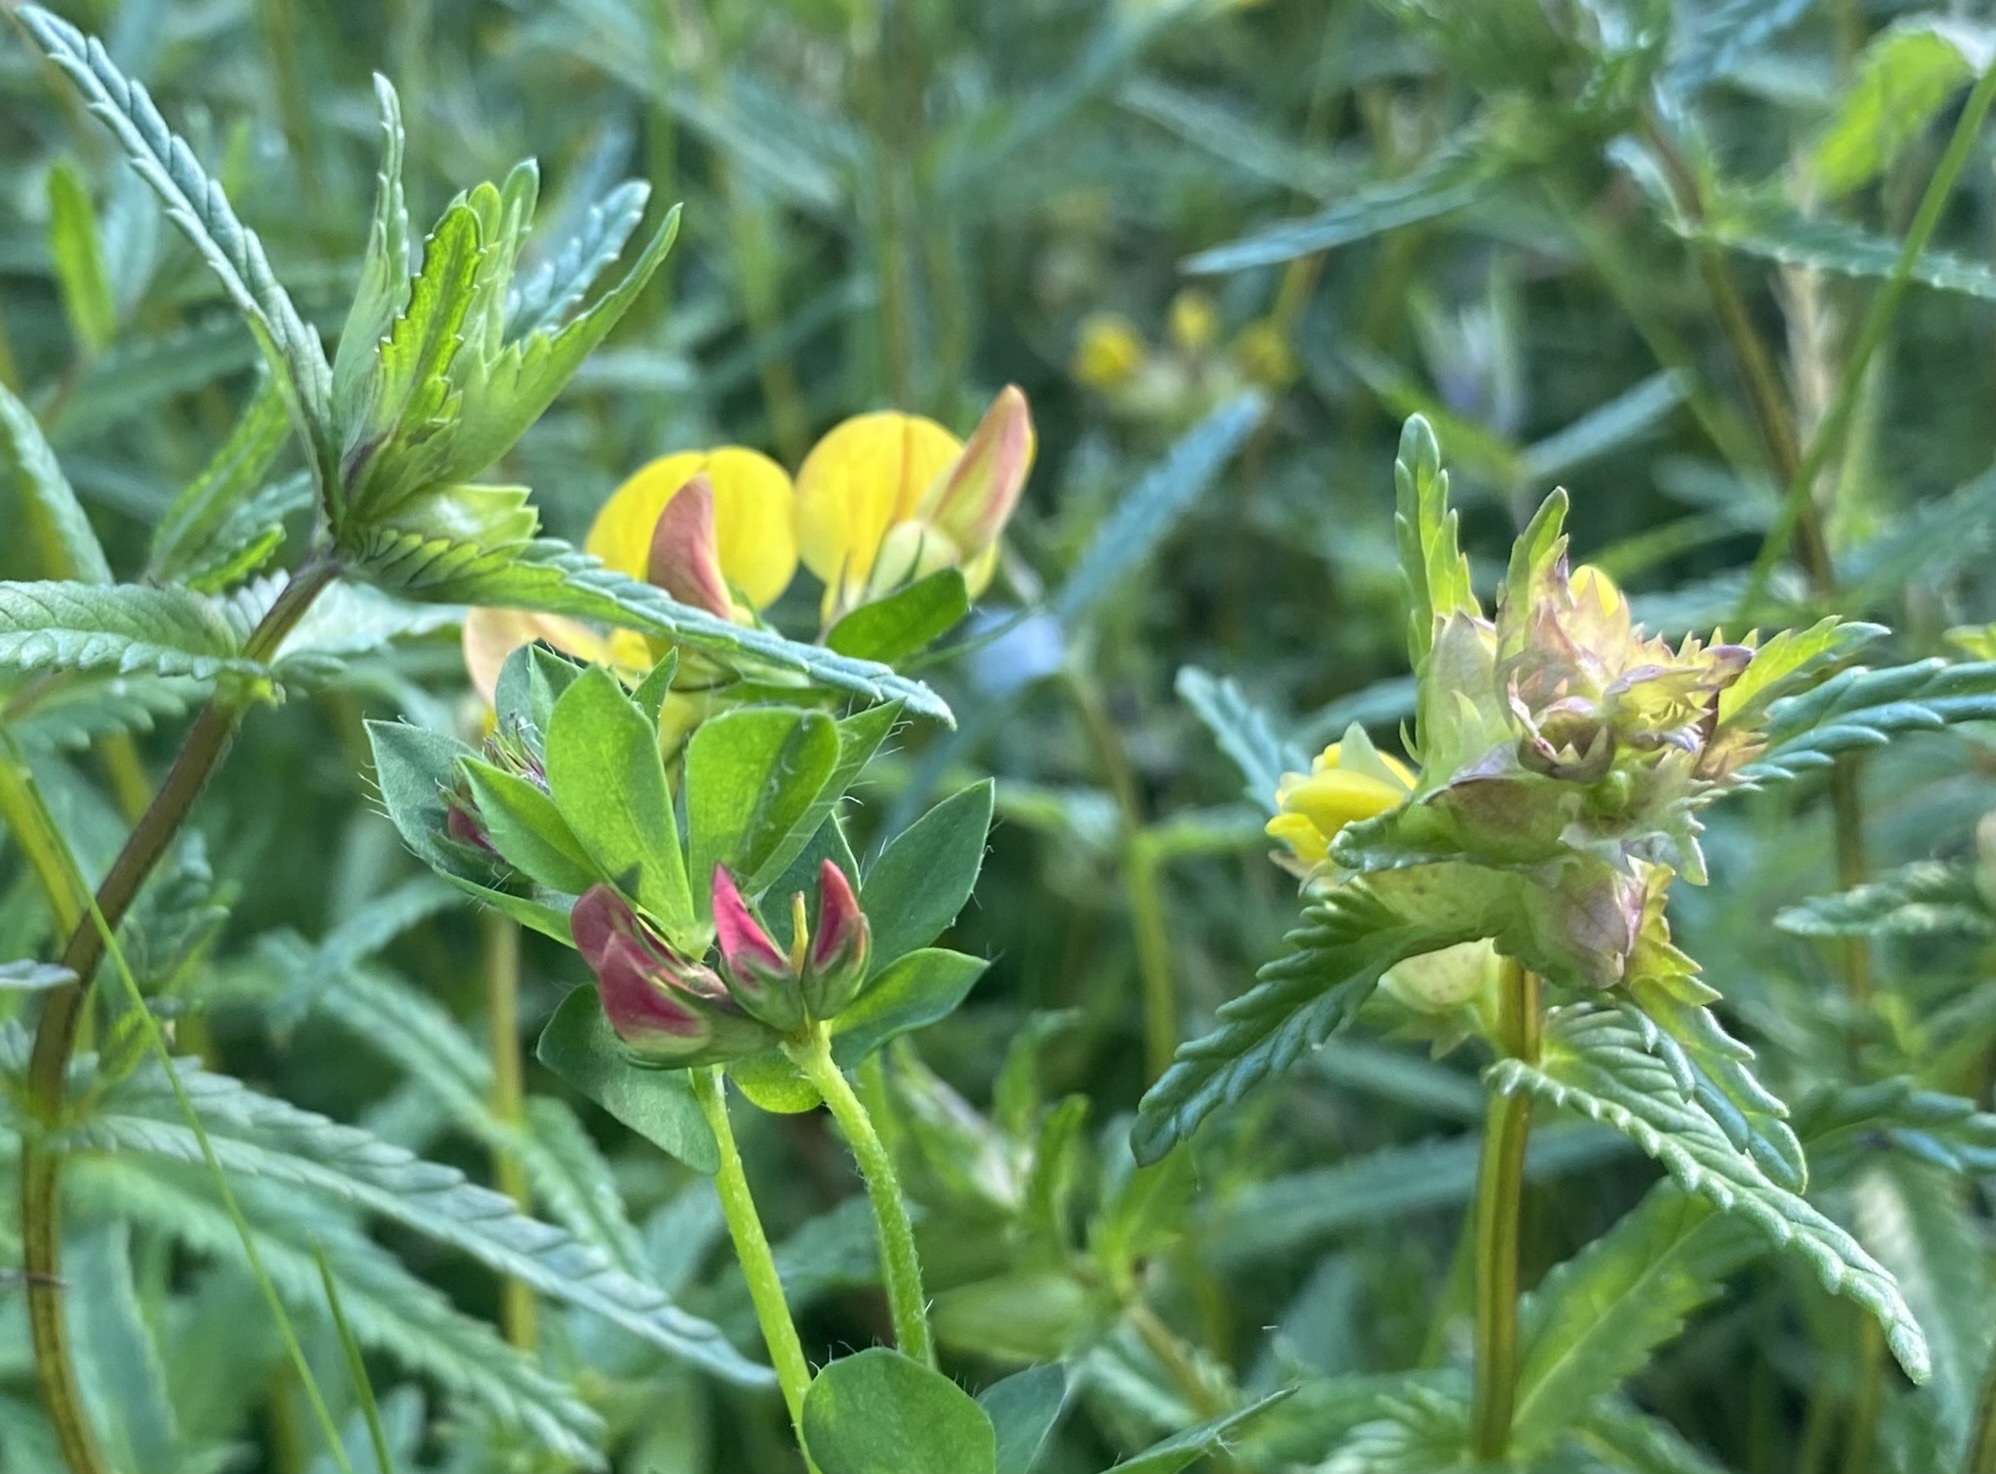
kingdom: Plantae
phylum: Tracheophyta
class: Magnoliopsida
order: Fabales
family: Fabaceae
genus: Lotus
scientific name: Lotus corniculatus
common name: Common bird's-foot-trefoil
